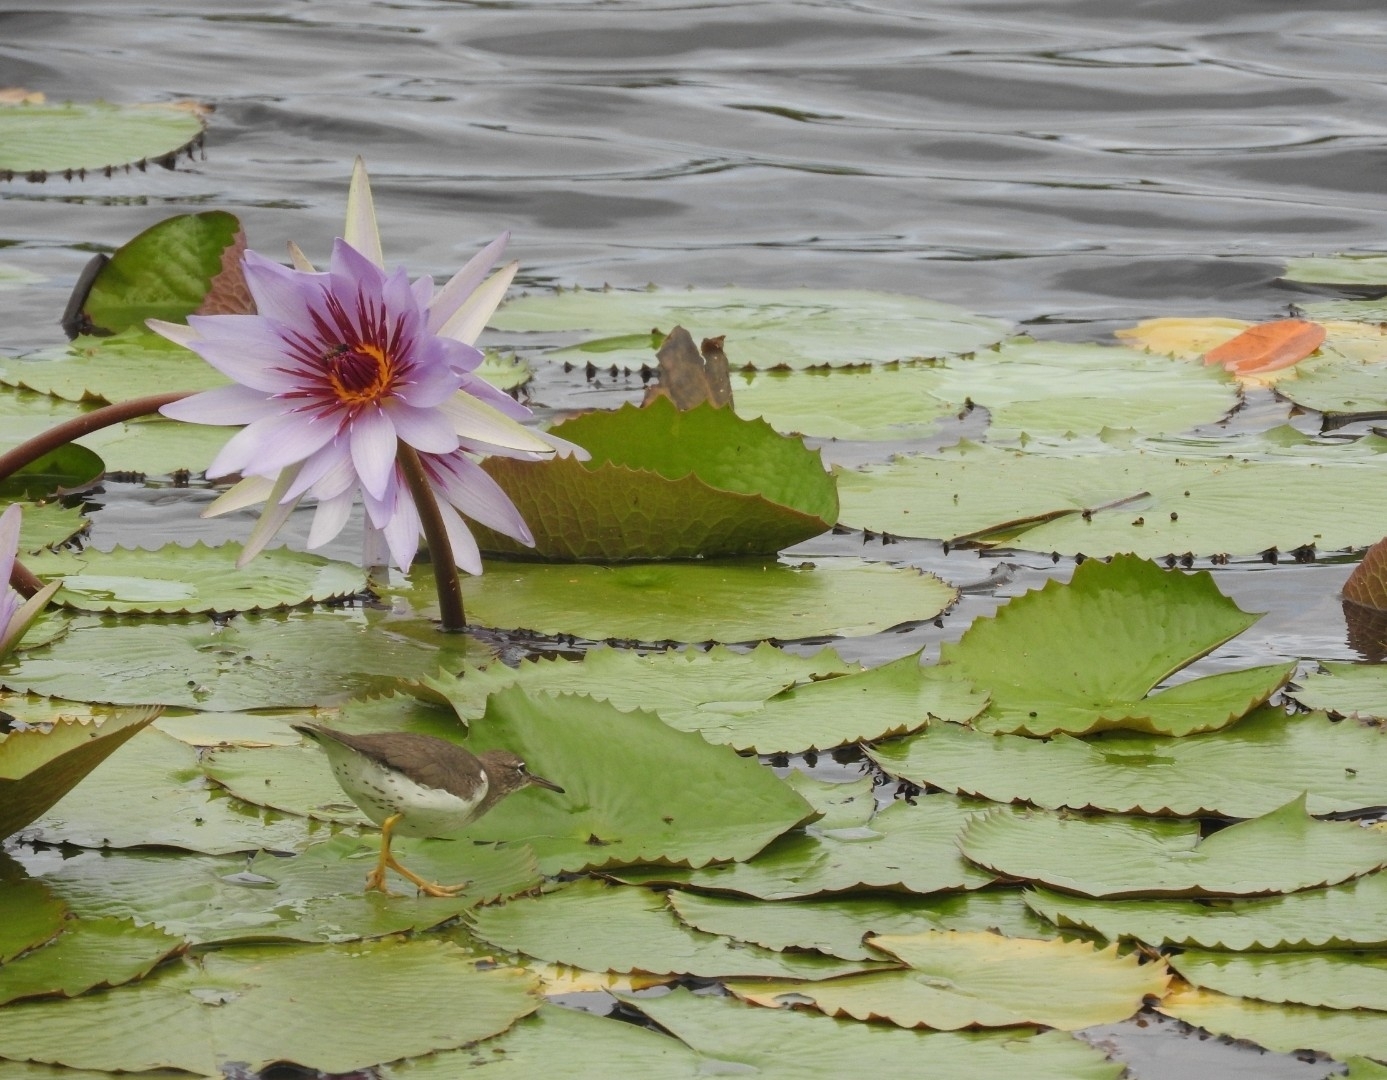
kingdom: Animalia
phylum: Chordata
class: Aves
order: Charadriiformes
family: Scolopacidae
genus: Actitis
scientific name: Actitis macularius
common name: Spotted sandpiper
